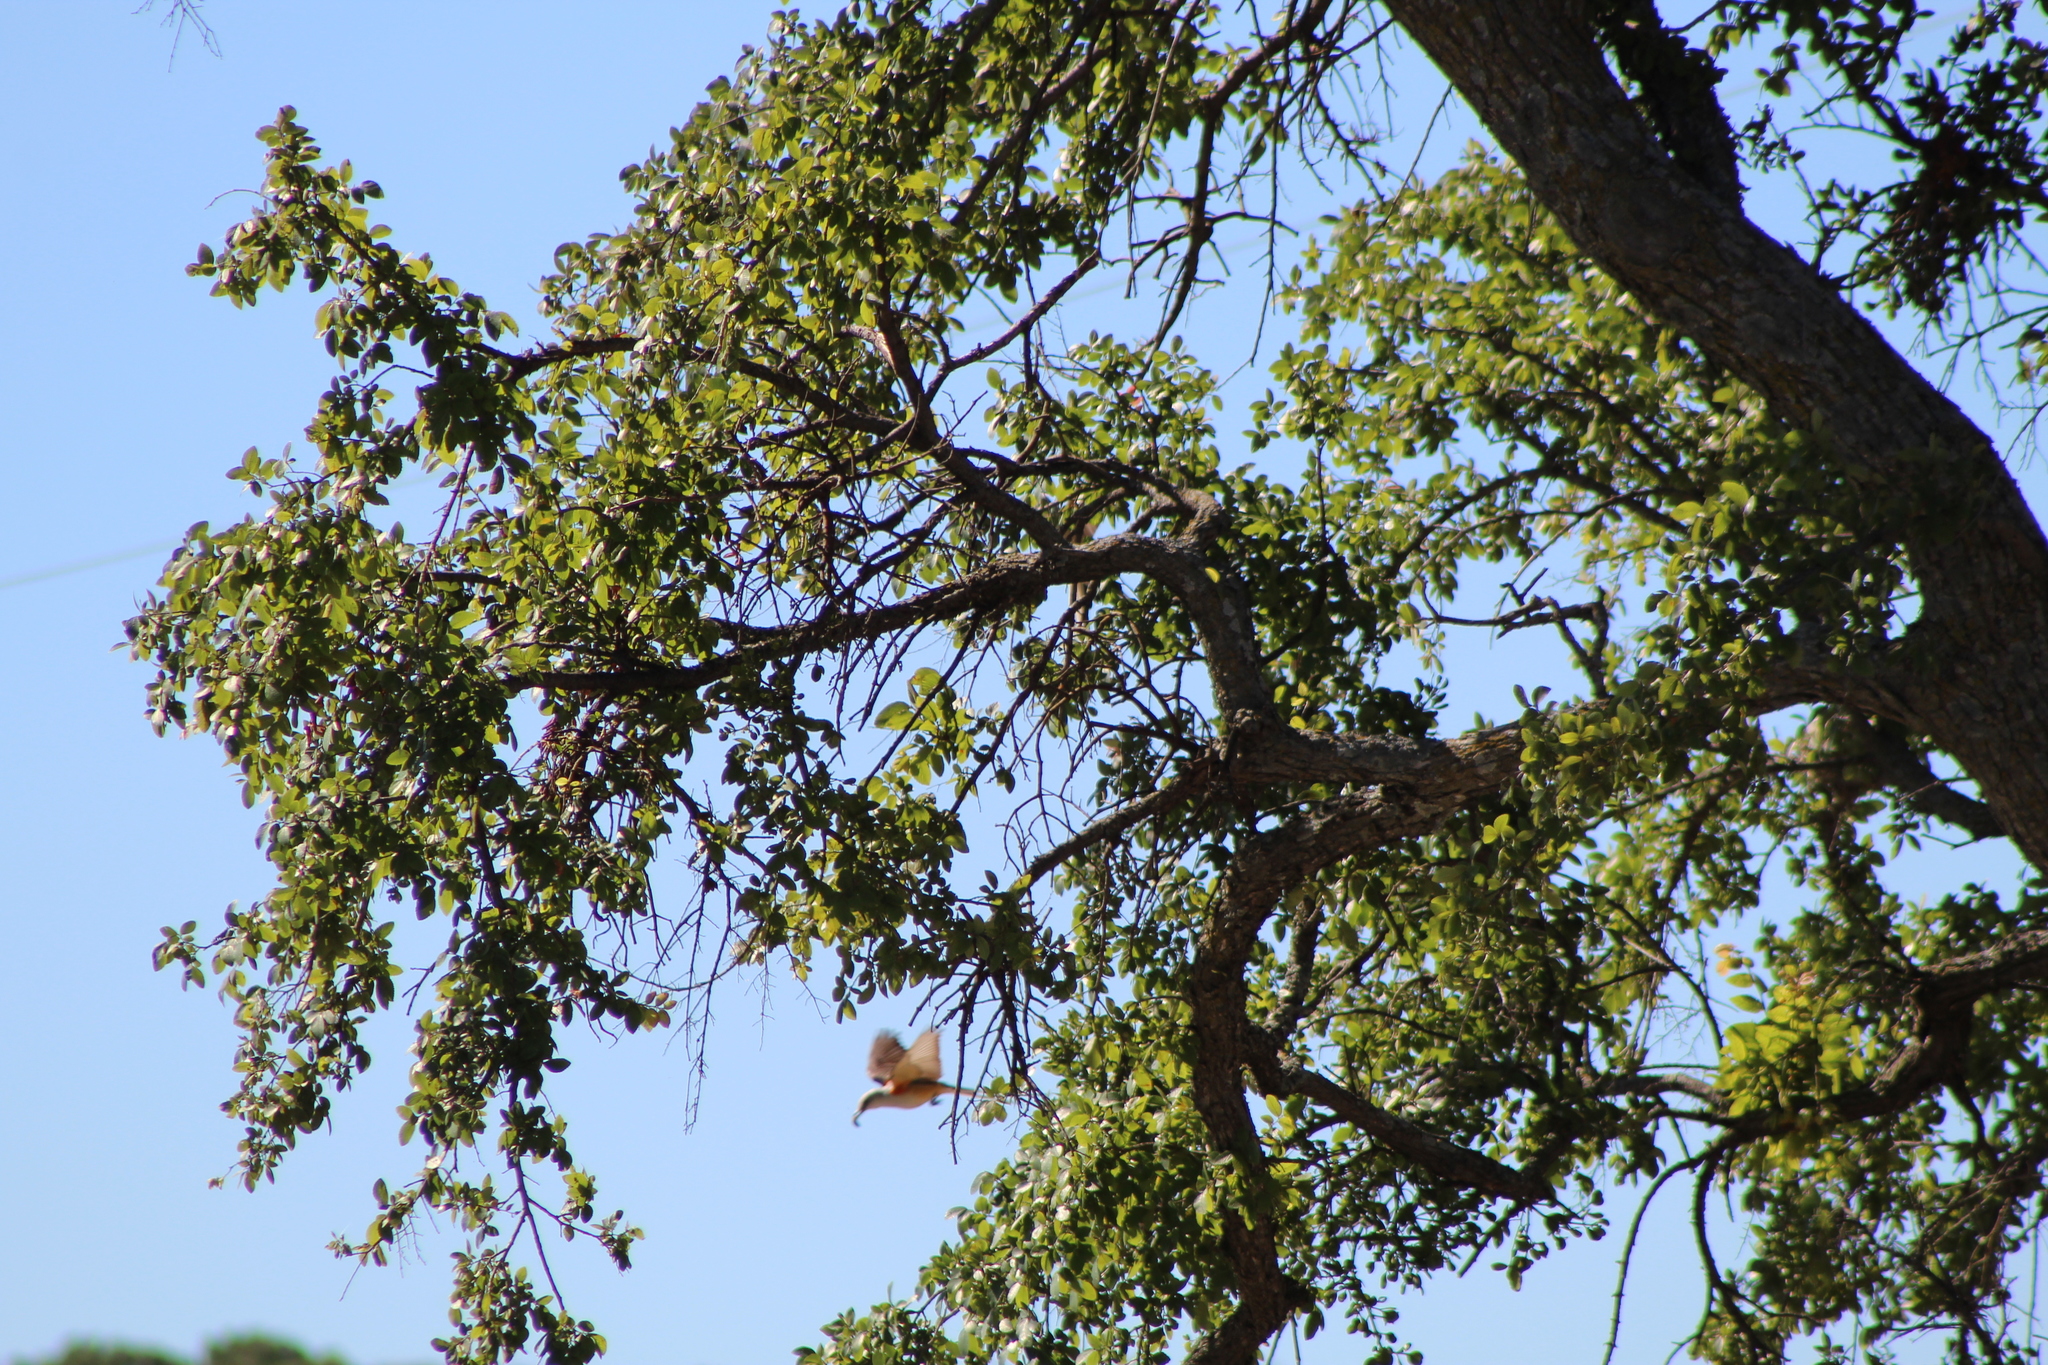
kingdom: Animalia
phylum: Chordata
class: Aves
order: Passeriformes
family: Tyrannidae
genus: Tyrannus
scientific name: Tyrannus forficatus
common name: Scissor-tailed flycatcher
